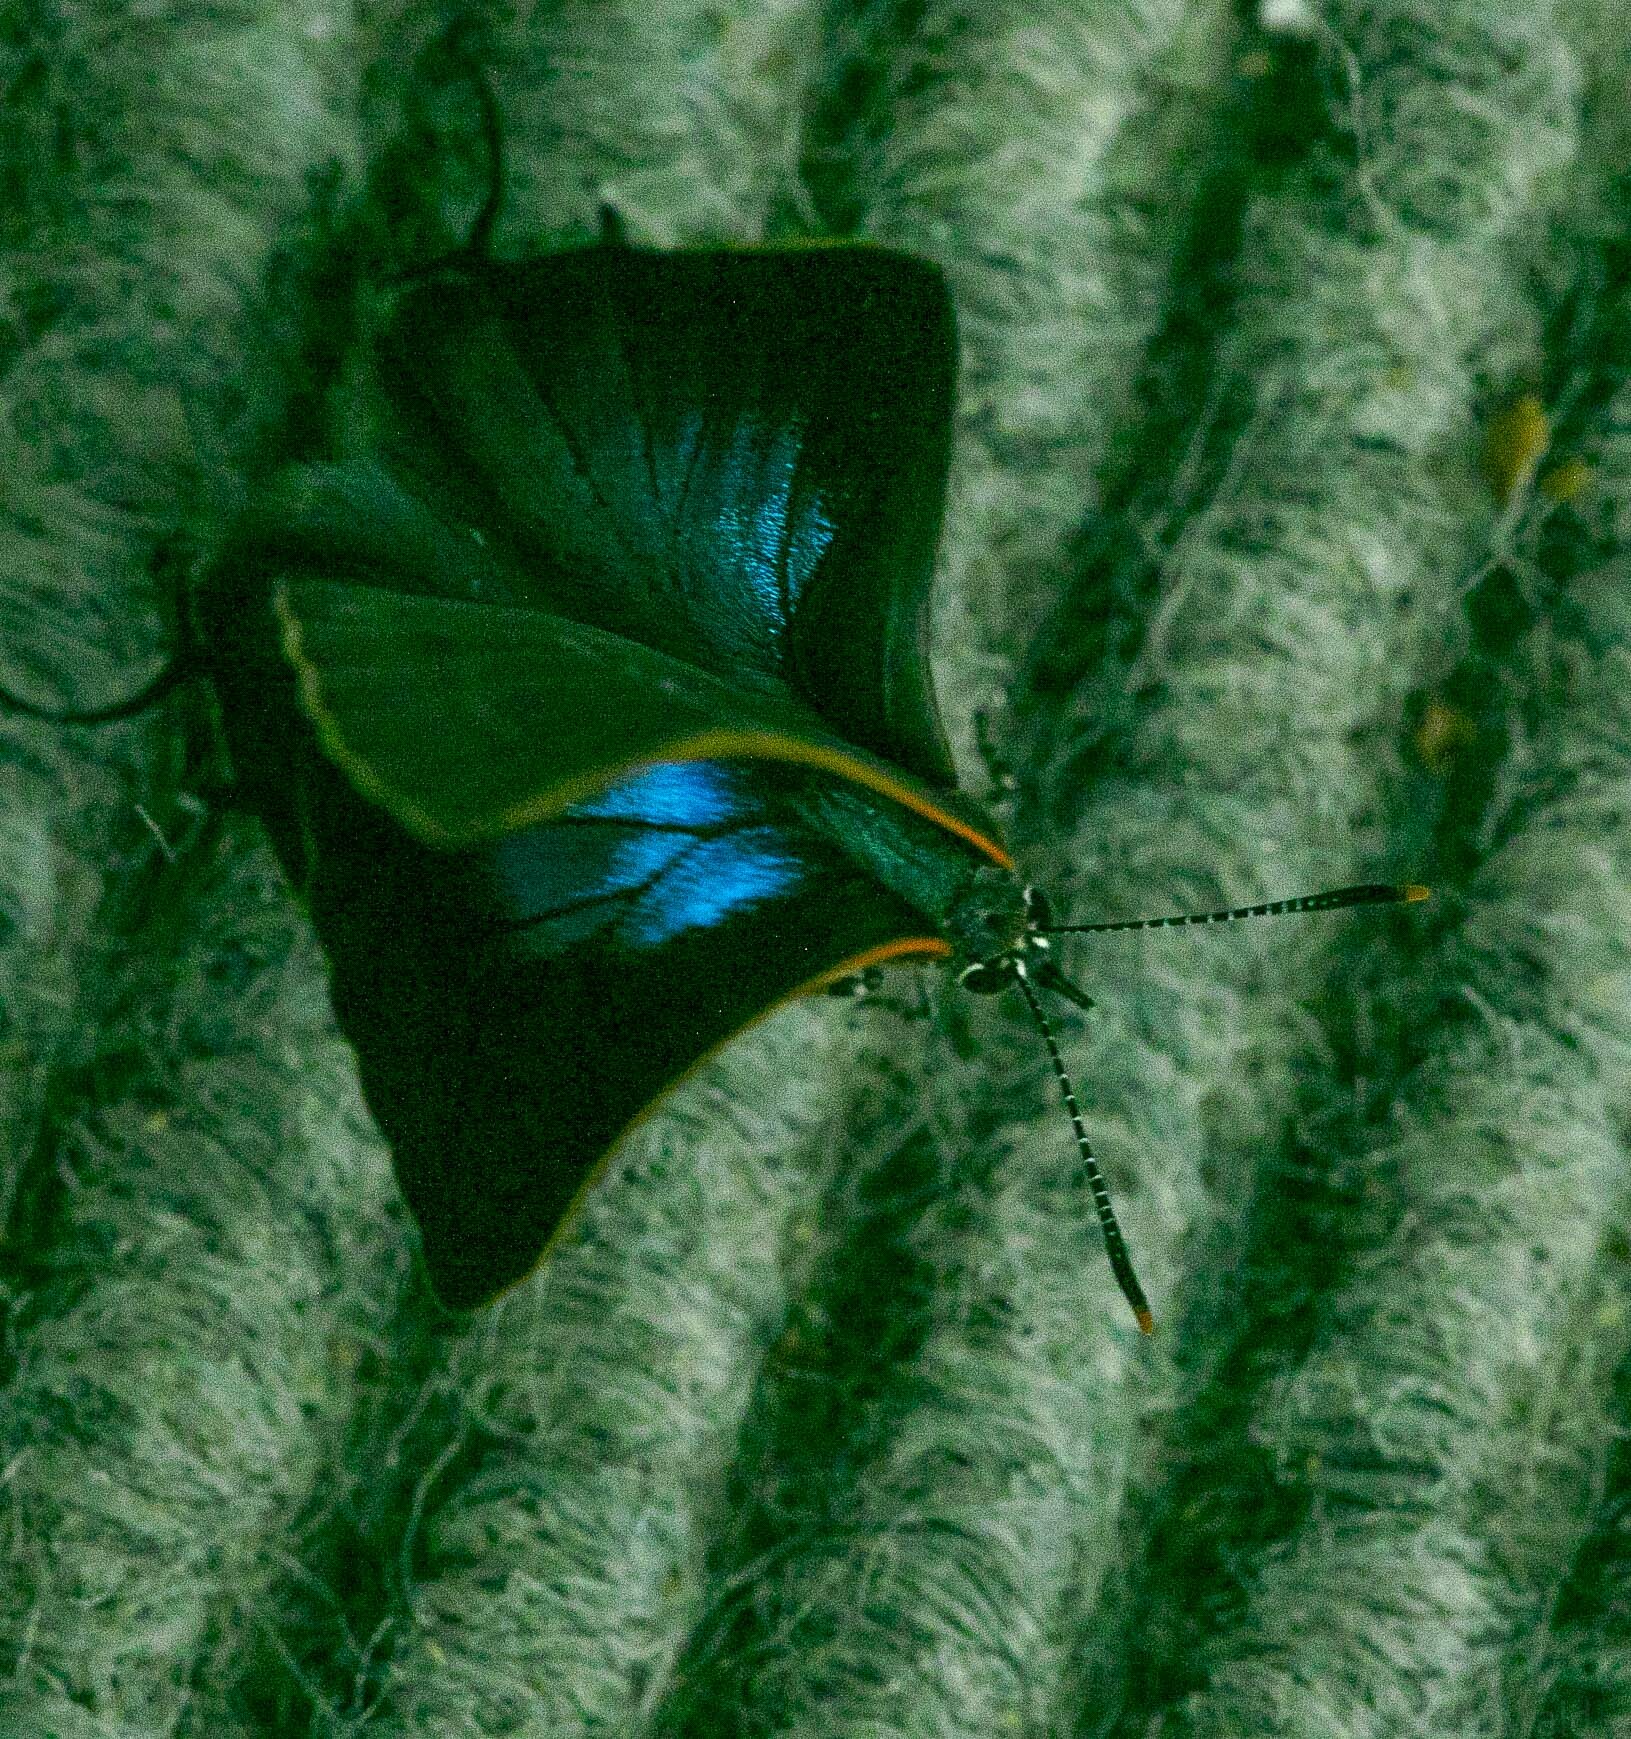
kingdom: Animalia
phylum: Arthropoda
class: Insecta
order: Lepidoptera
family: Lycaenidae
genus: Parrhasius
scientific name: Parrhasius m-album
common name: White m hairstreak
